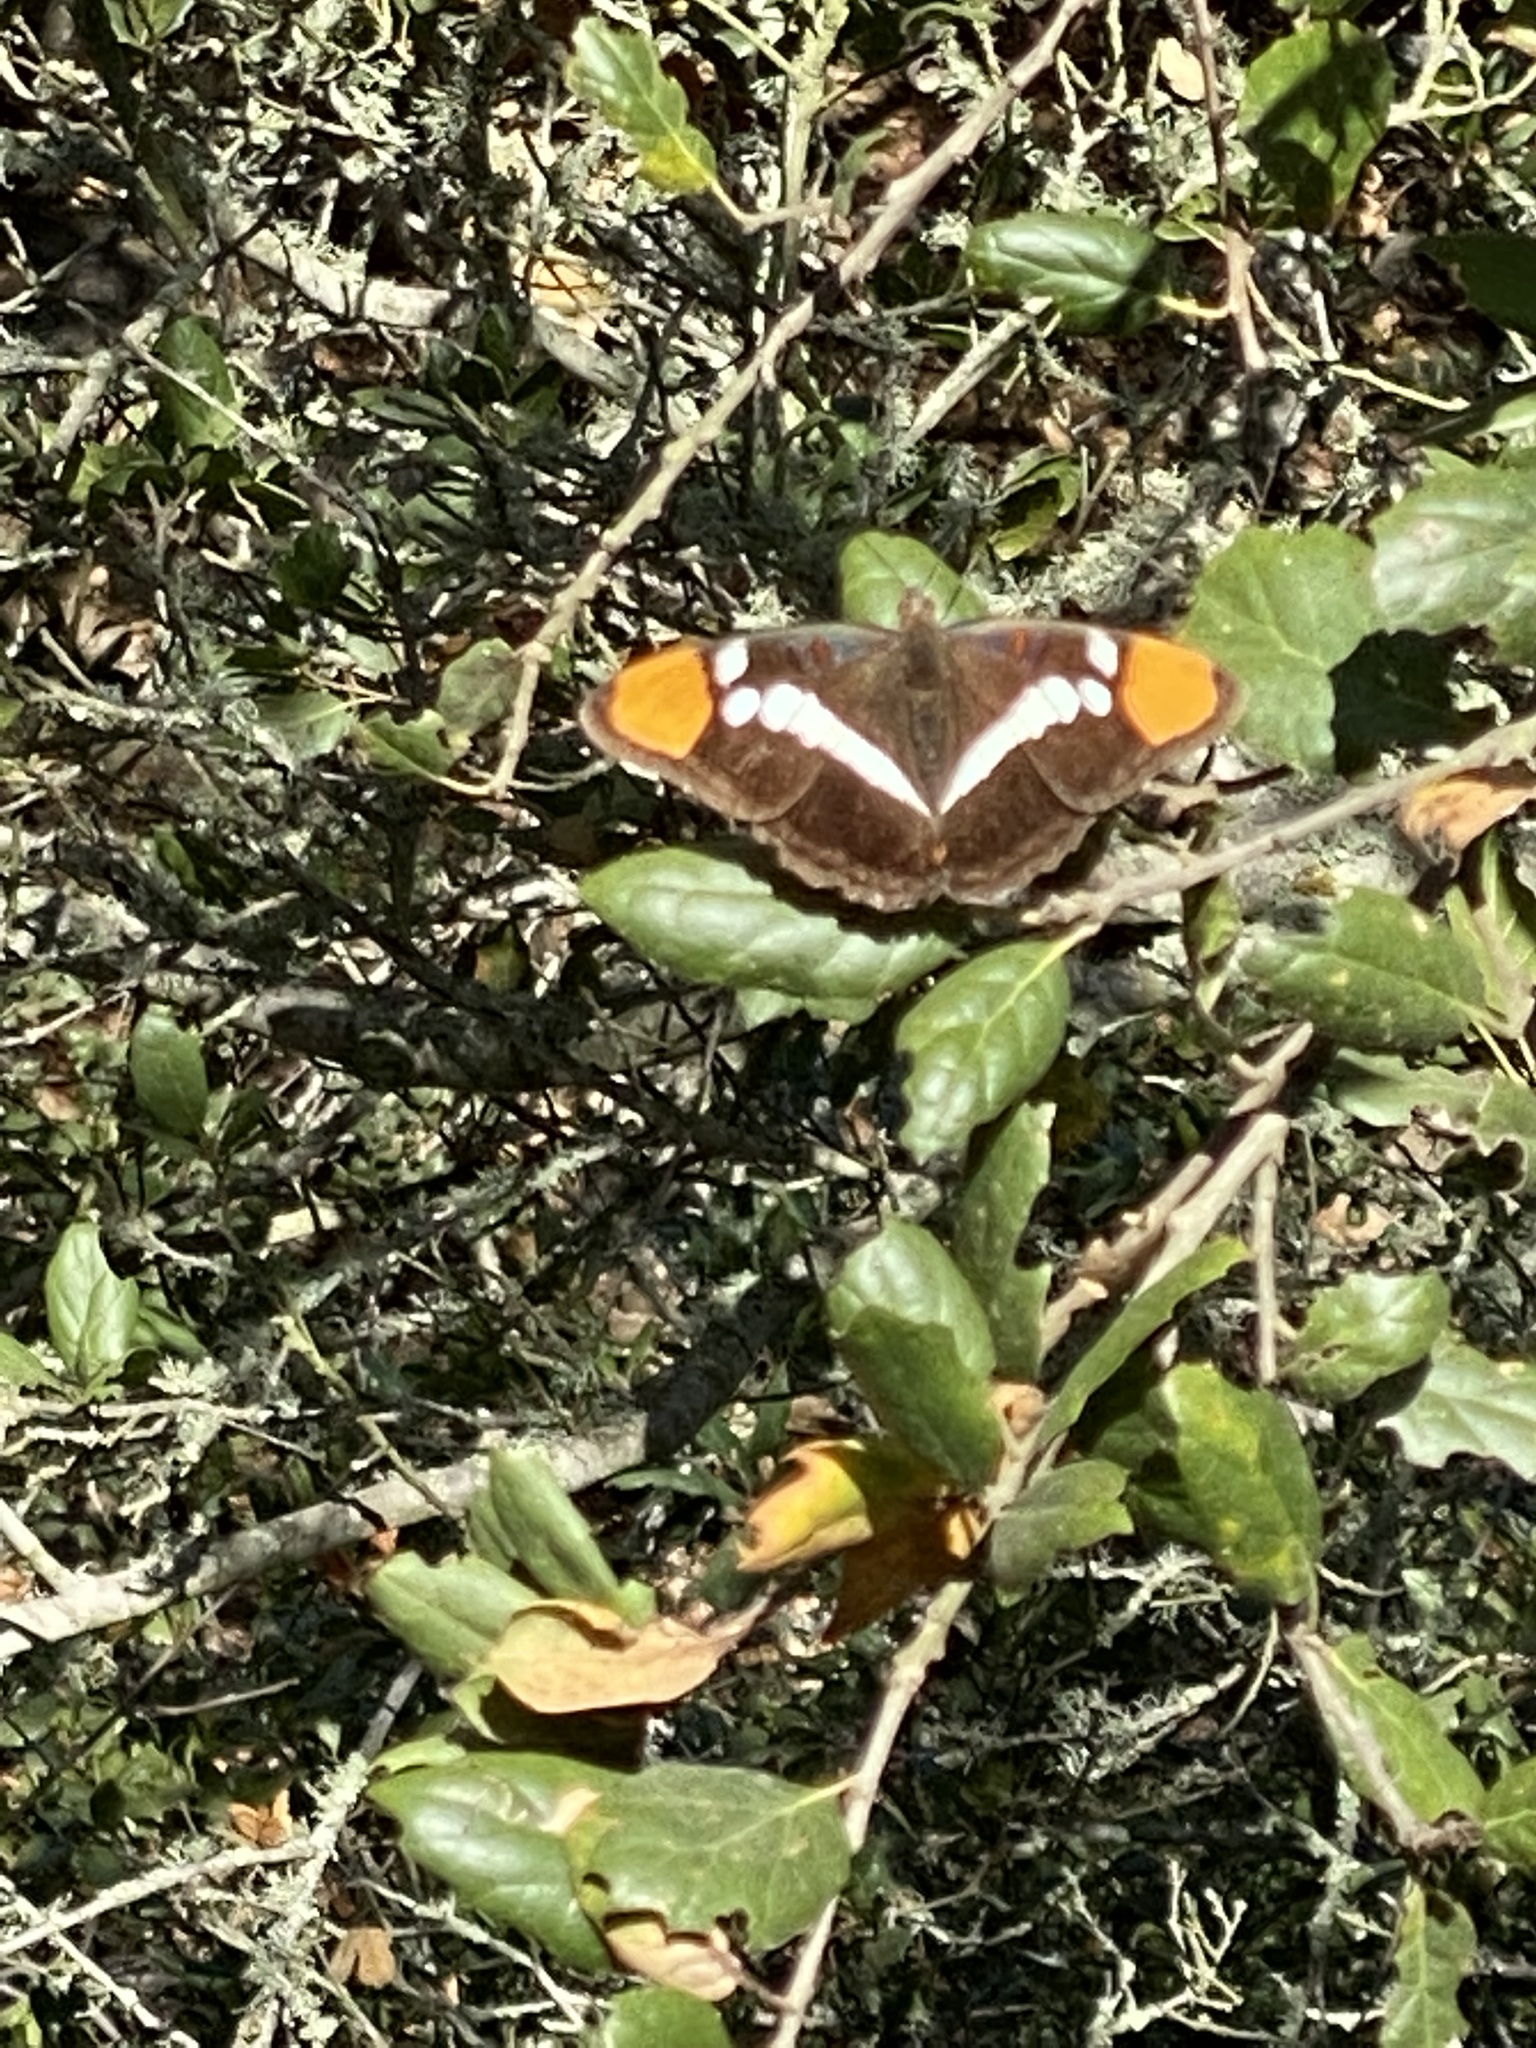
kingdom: Animalia
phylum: Arthropoda
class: Insecta
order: Lepidoptera
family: Nymphalidae
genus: Limenitis
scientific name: Limenitis bredowii
